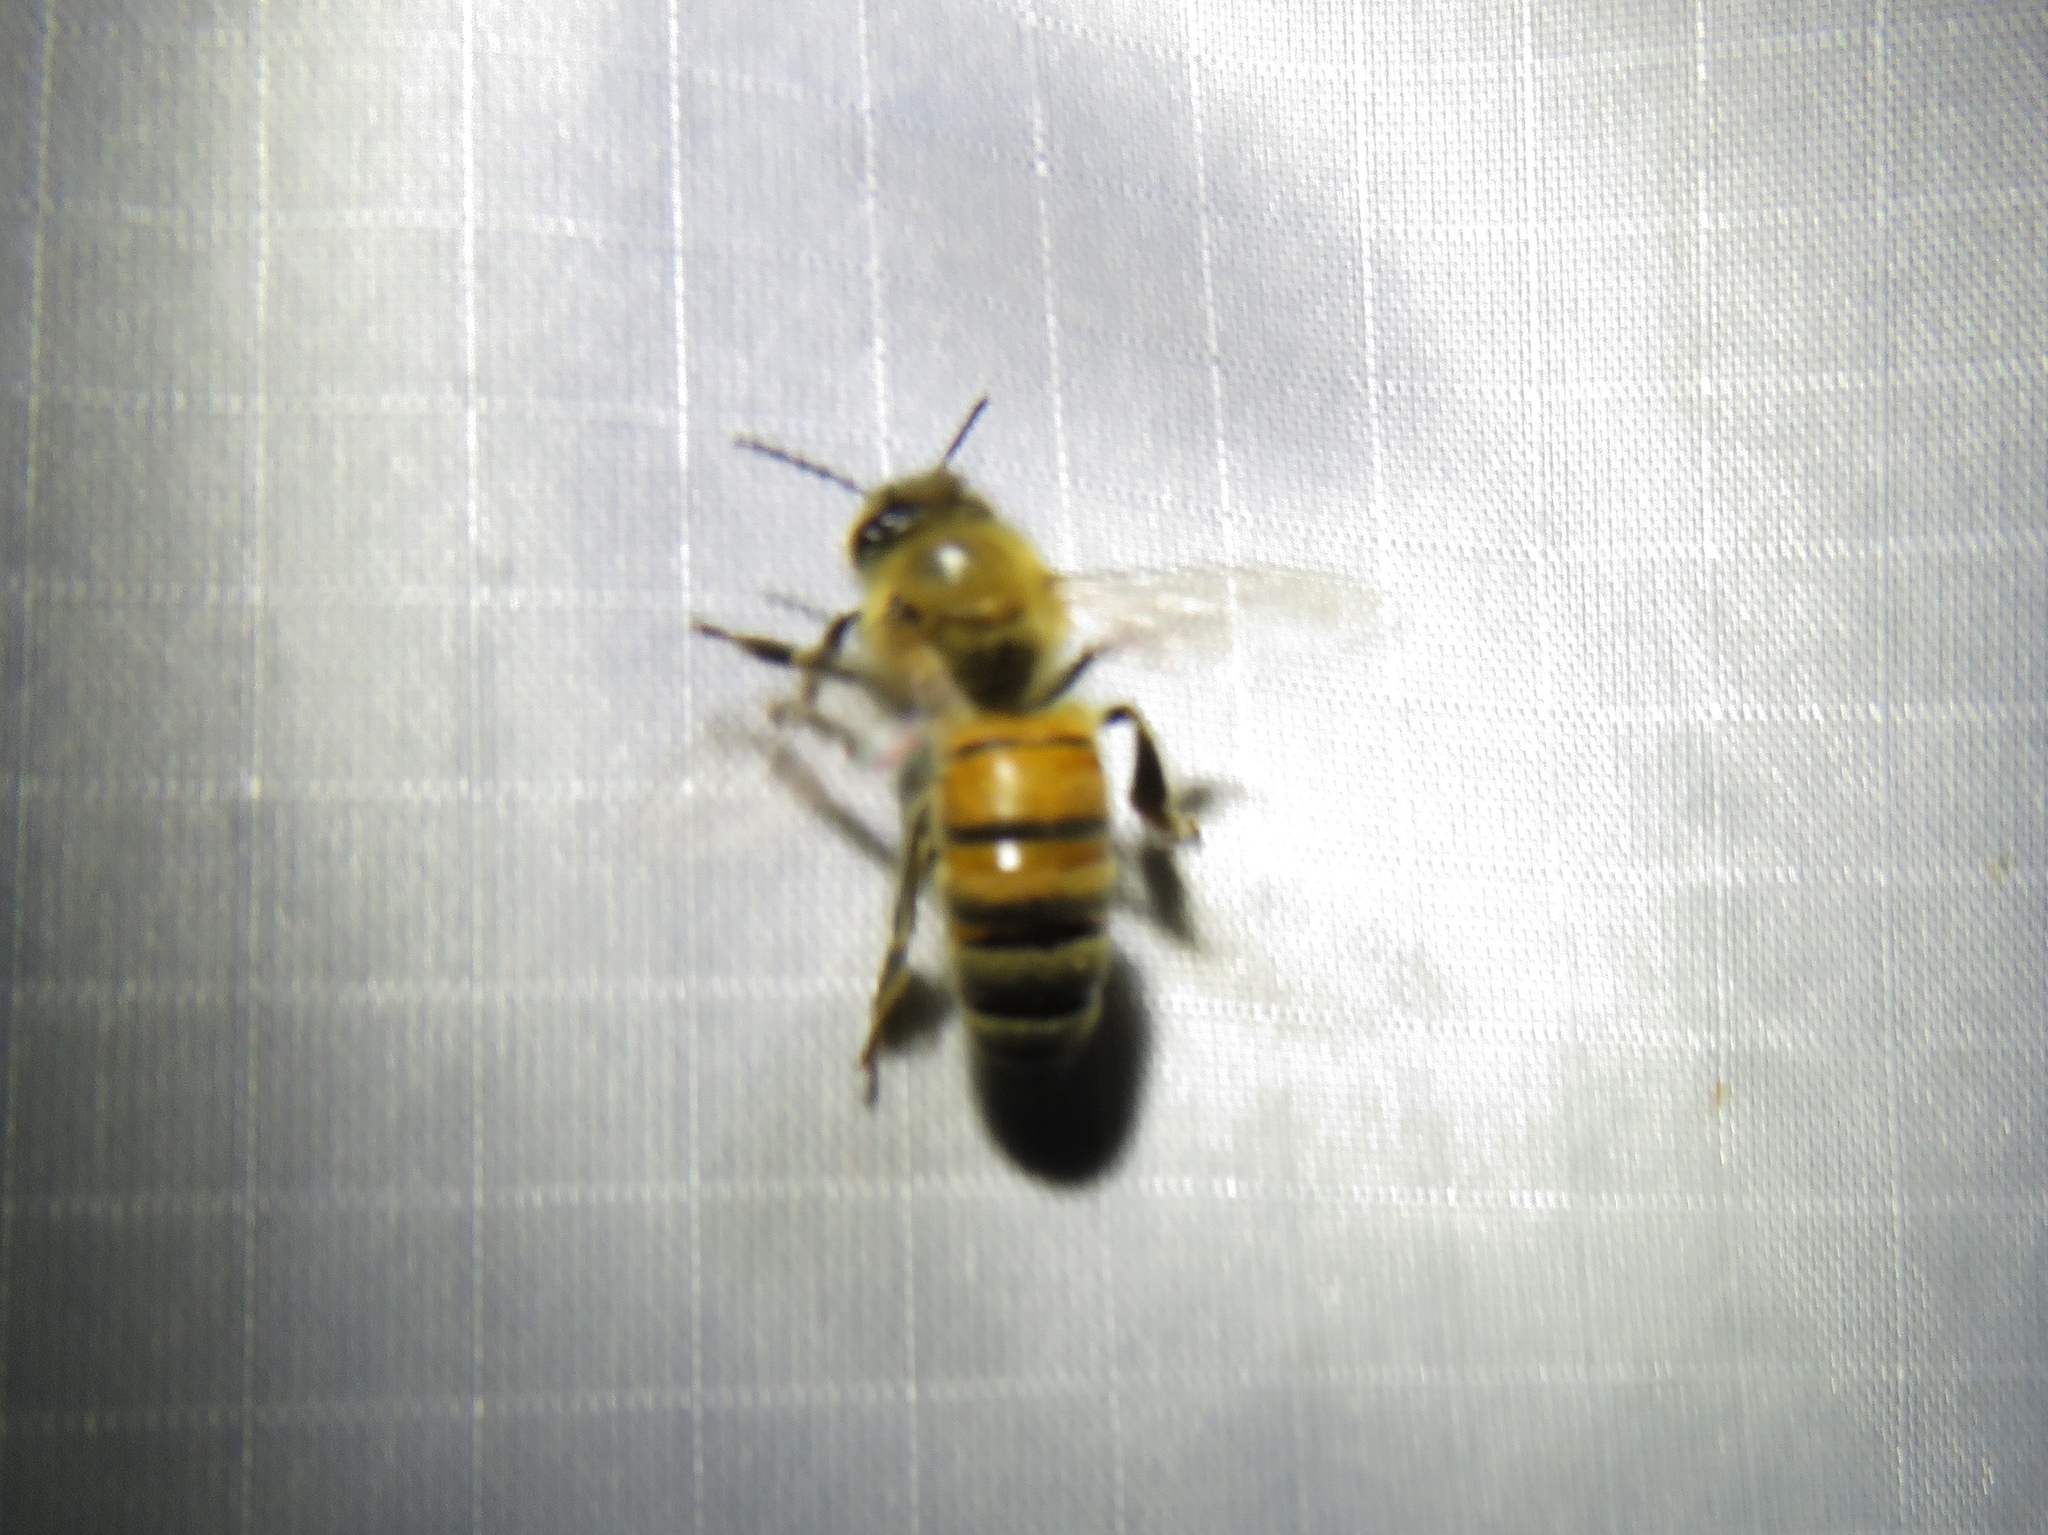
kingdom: Animalia
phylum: Arthropoda
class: Insecta
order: Hymenoptera
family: Apidae
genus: Apis
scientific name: Apis mellifera
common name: Honey bee
